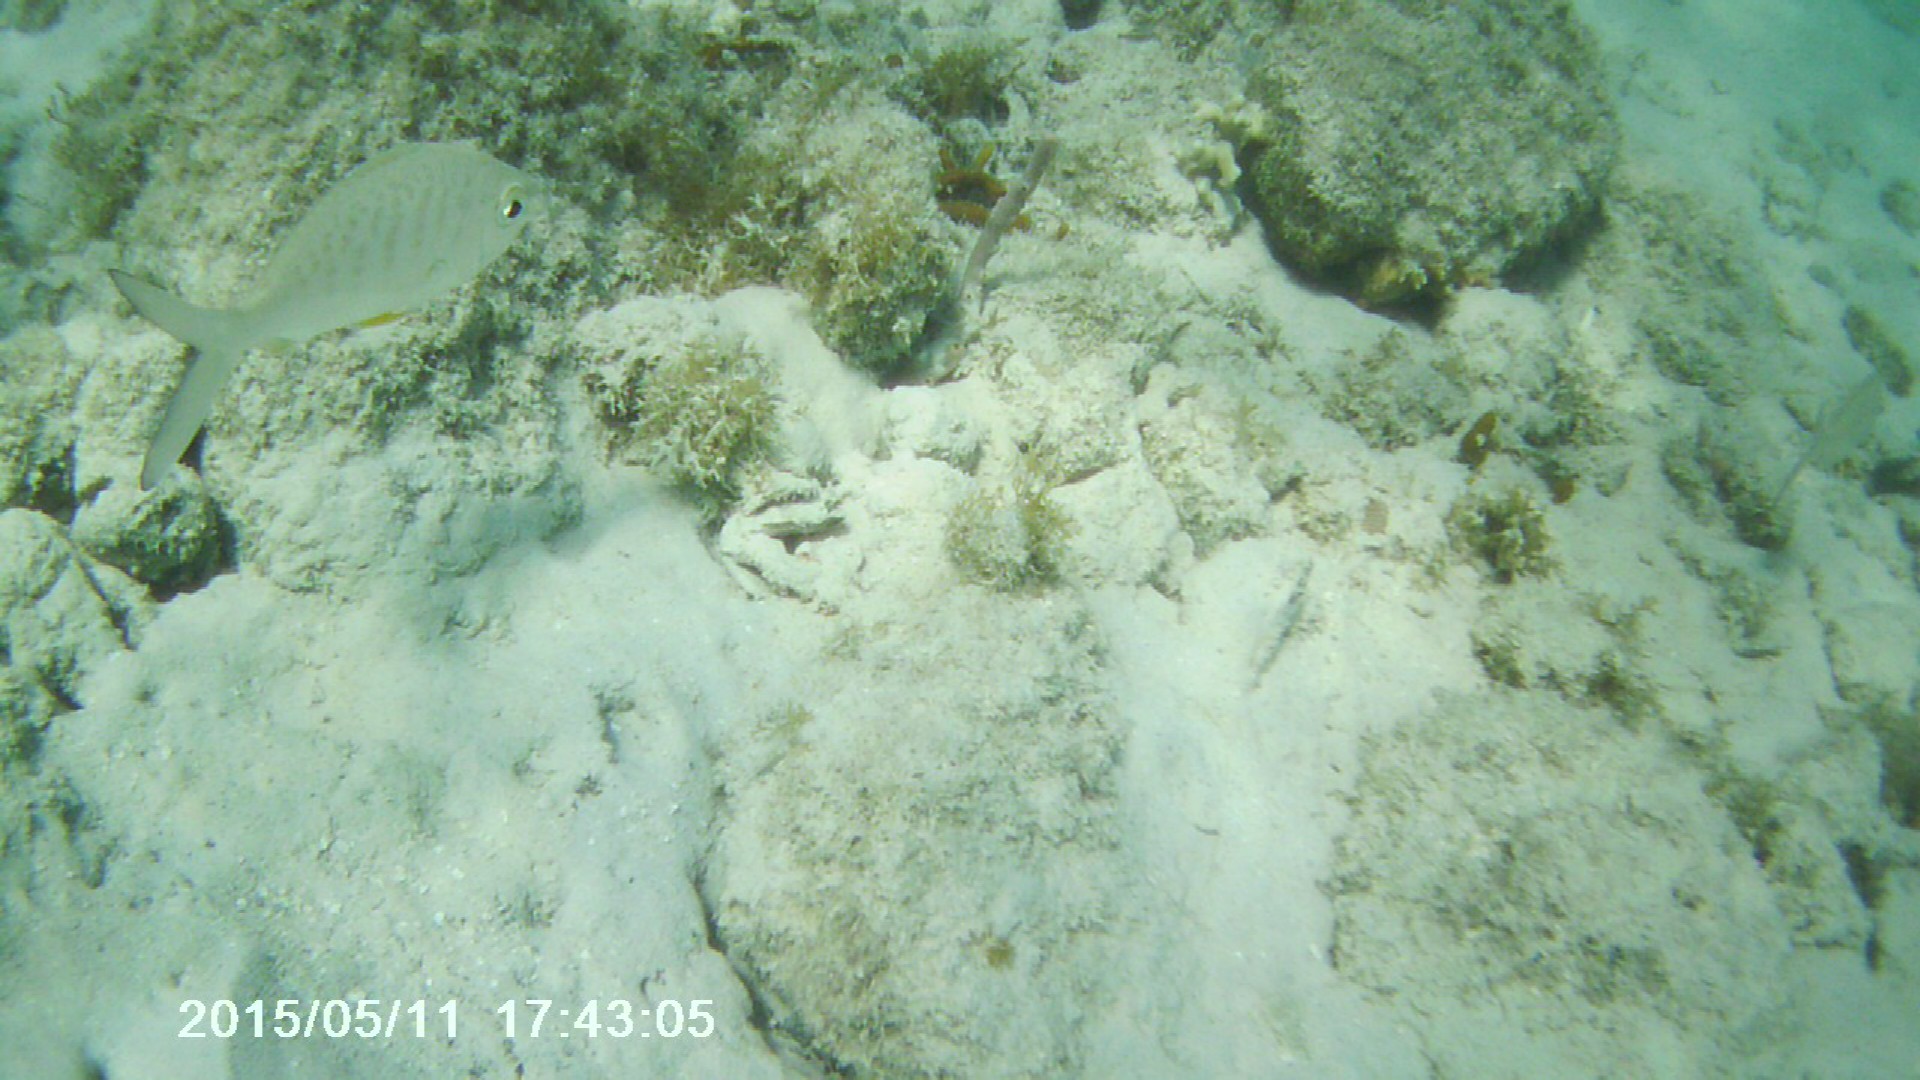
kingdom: Animalia
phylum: Chordata
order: Perciformes
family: Gerreidae
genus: Gerres
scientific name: Gerres cinereus
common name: Hedow
